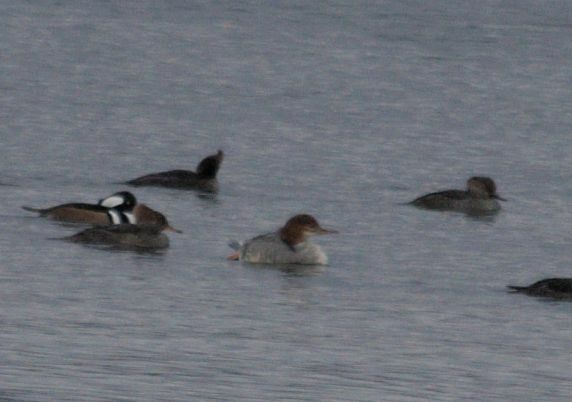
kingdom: Animalia
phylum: Chordata
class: Aves
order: Anseriformes
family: Anatidae
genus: Mergus
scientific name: Mergus merganser
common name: Common merganser
